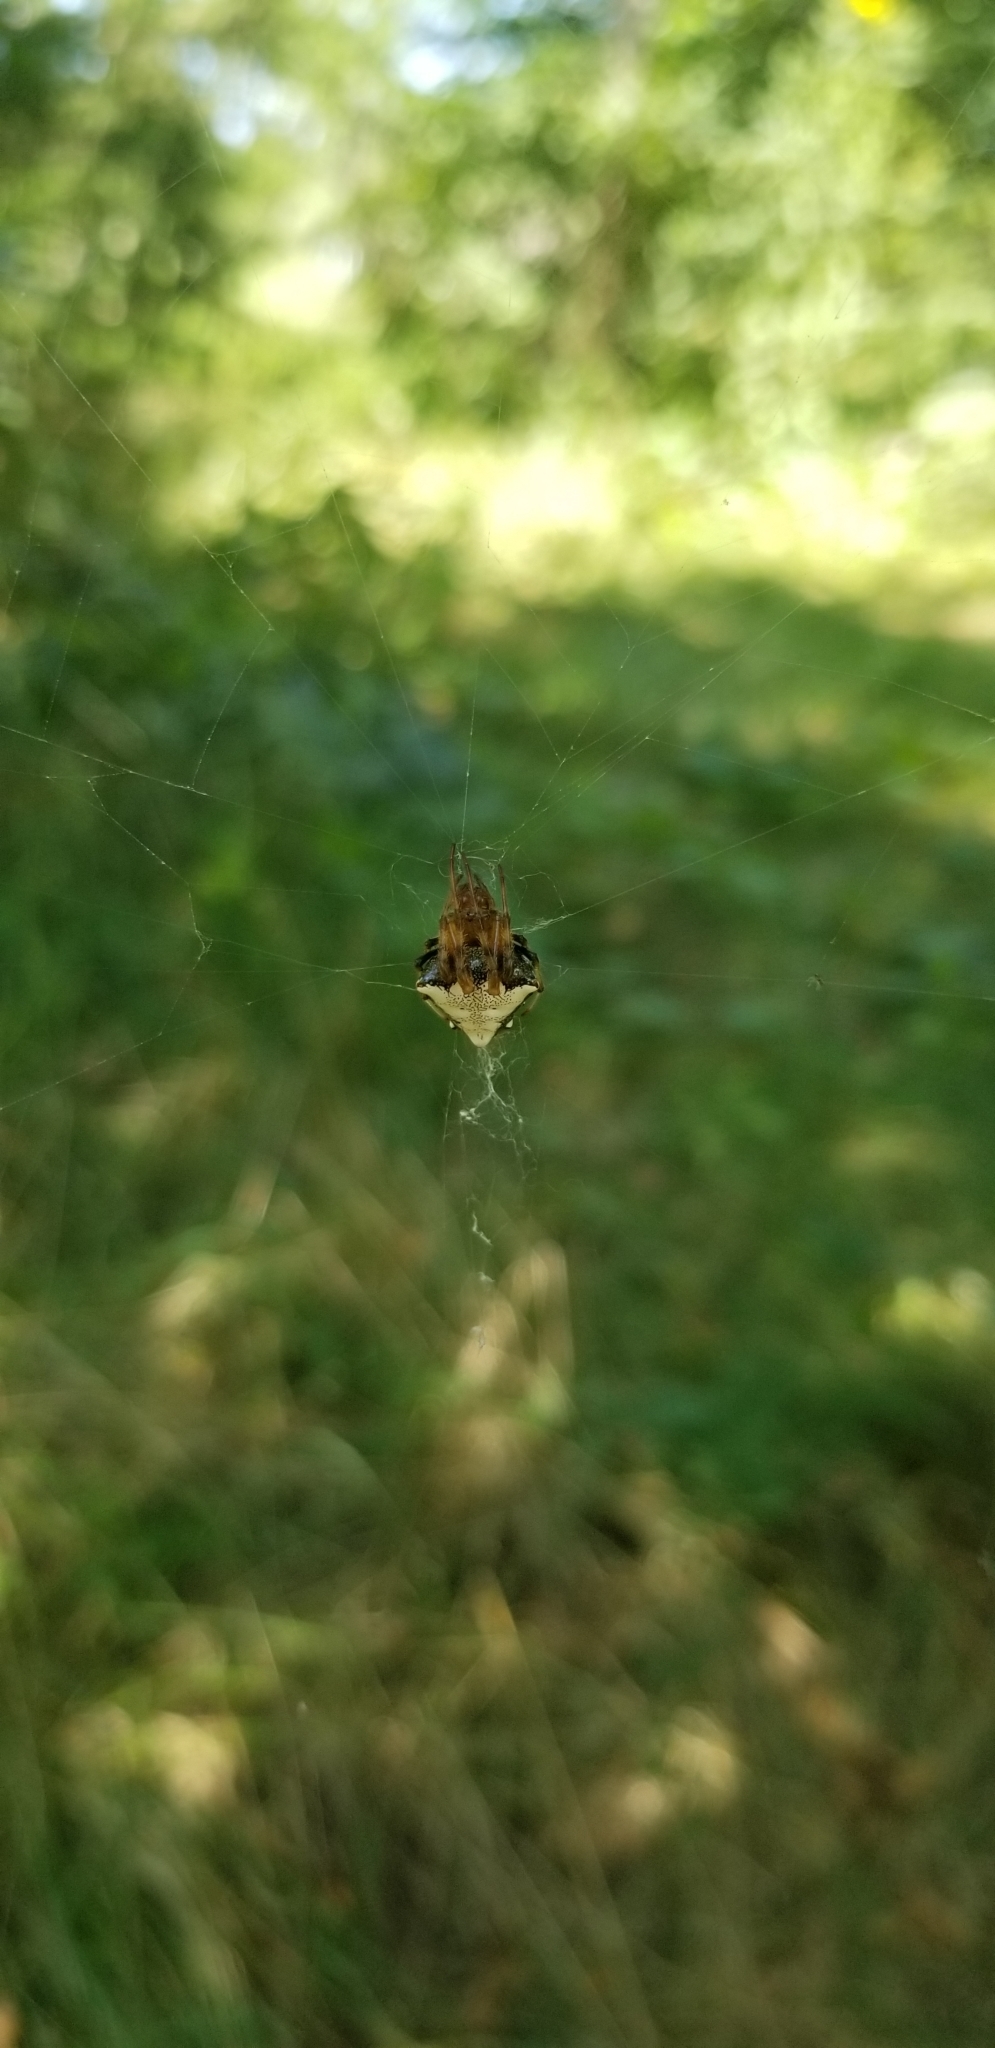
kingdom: Animalia
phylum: Arthropoda
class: Arachnida
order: Araneae
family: Araneidae
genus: Verrucosa
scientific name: Verrucosa arenata
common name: Orb weavers
